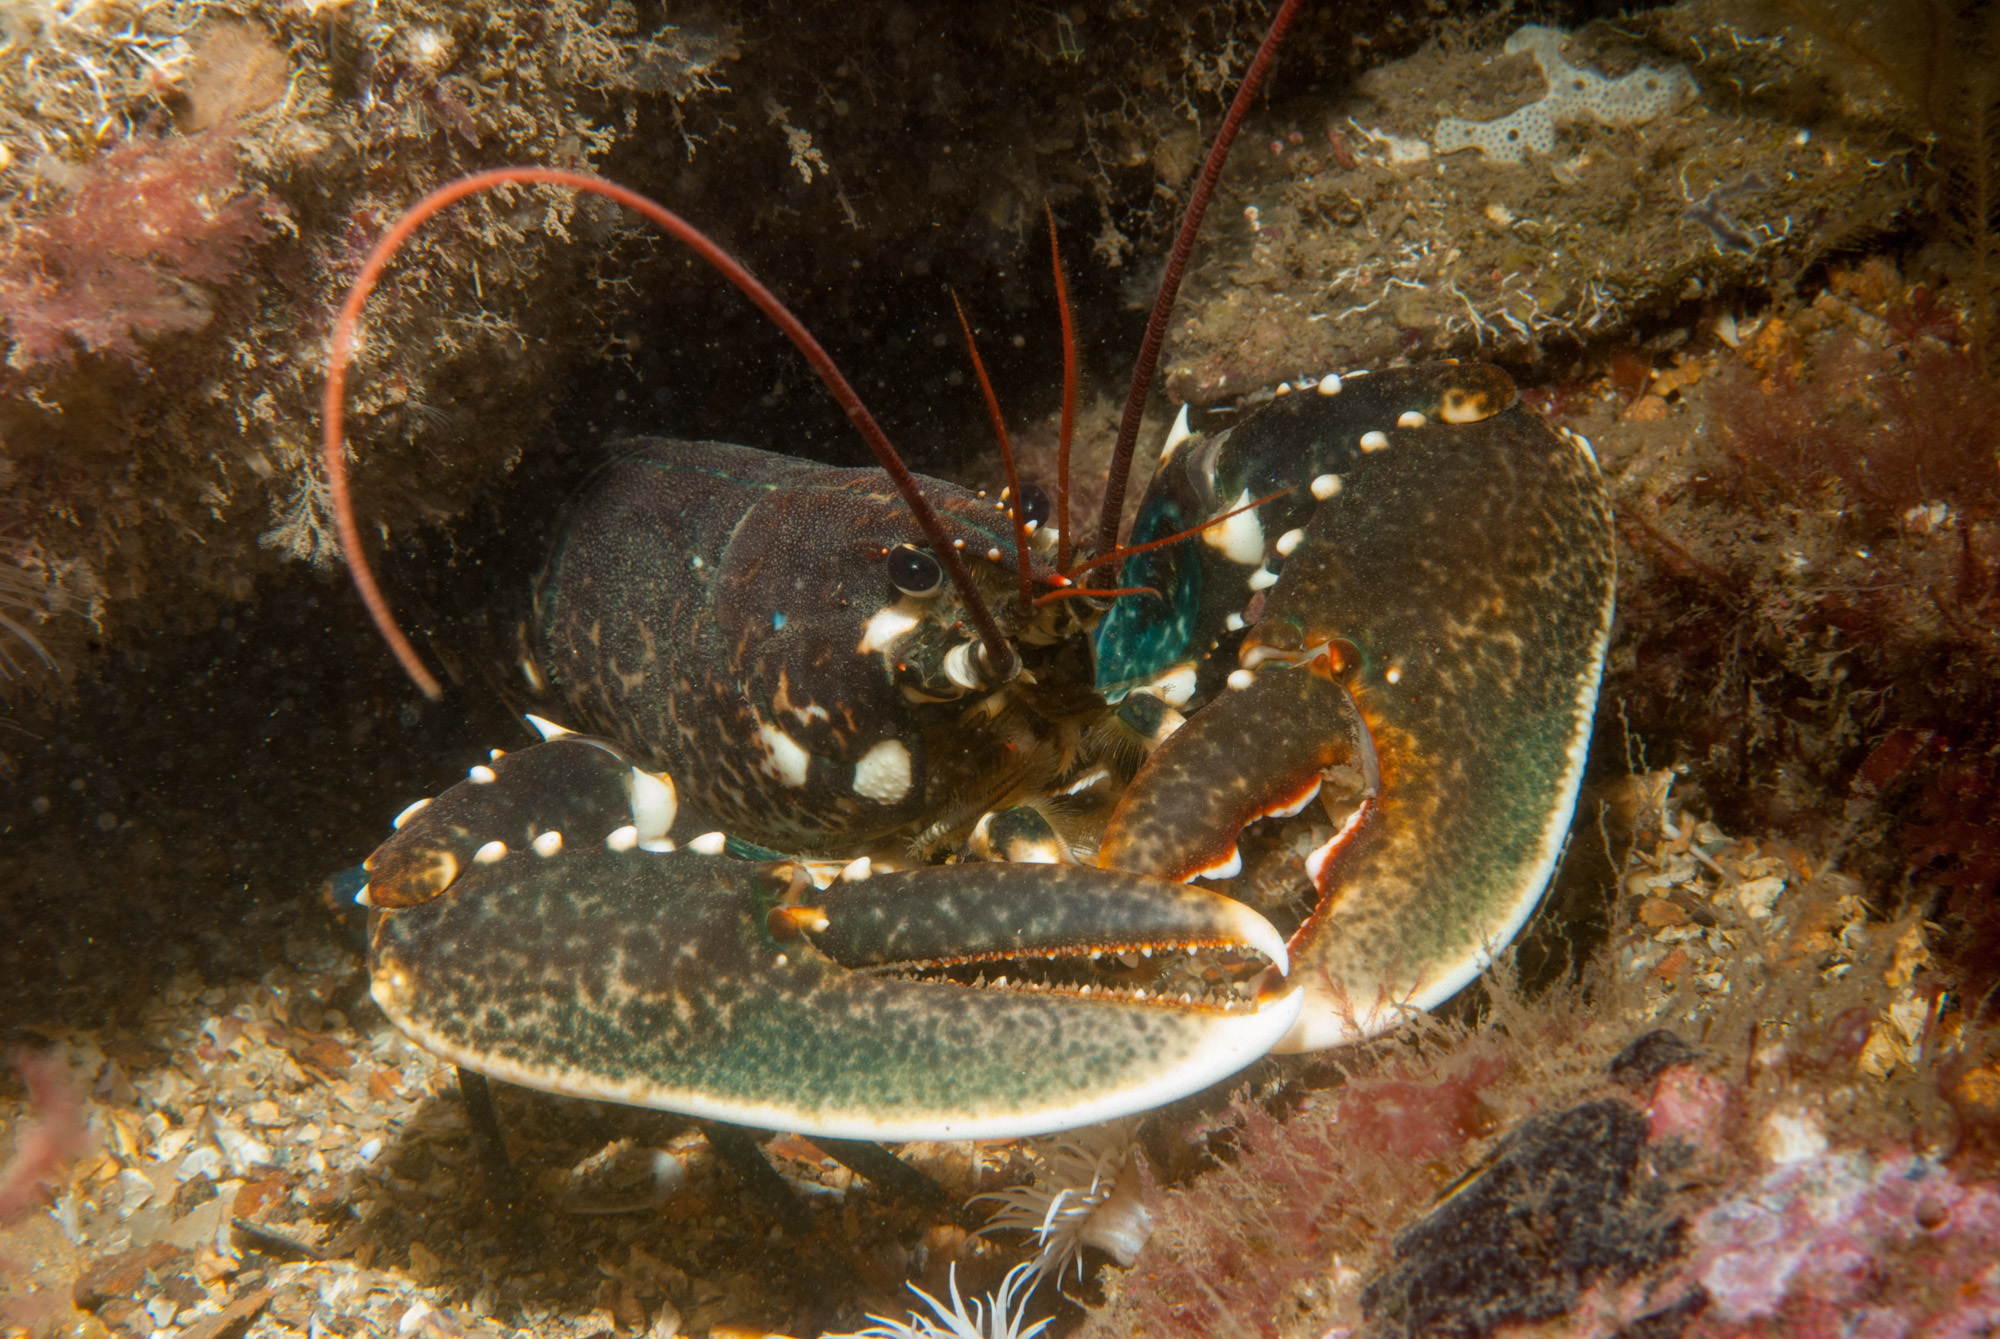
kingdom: Animalia
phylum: Arthropoda
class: Malacostraca
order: Decapoda
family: Nephropidae
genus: Homarus
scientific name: Homarus gammarus
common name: European lobster
